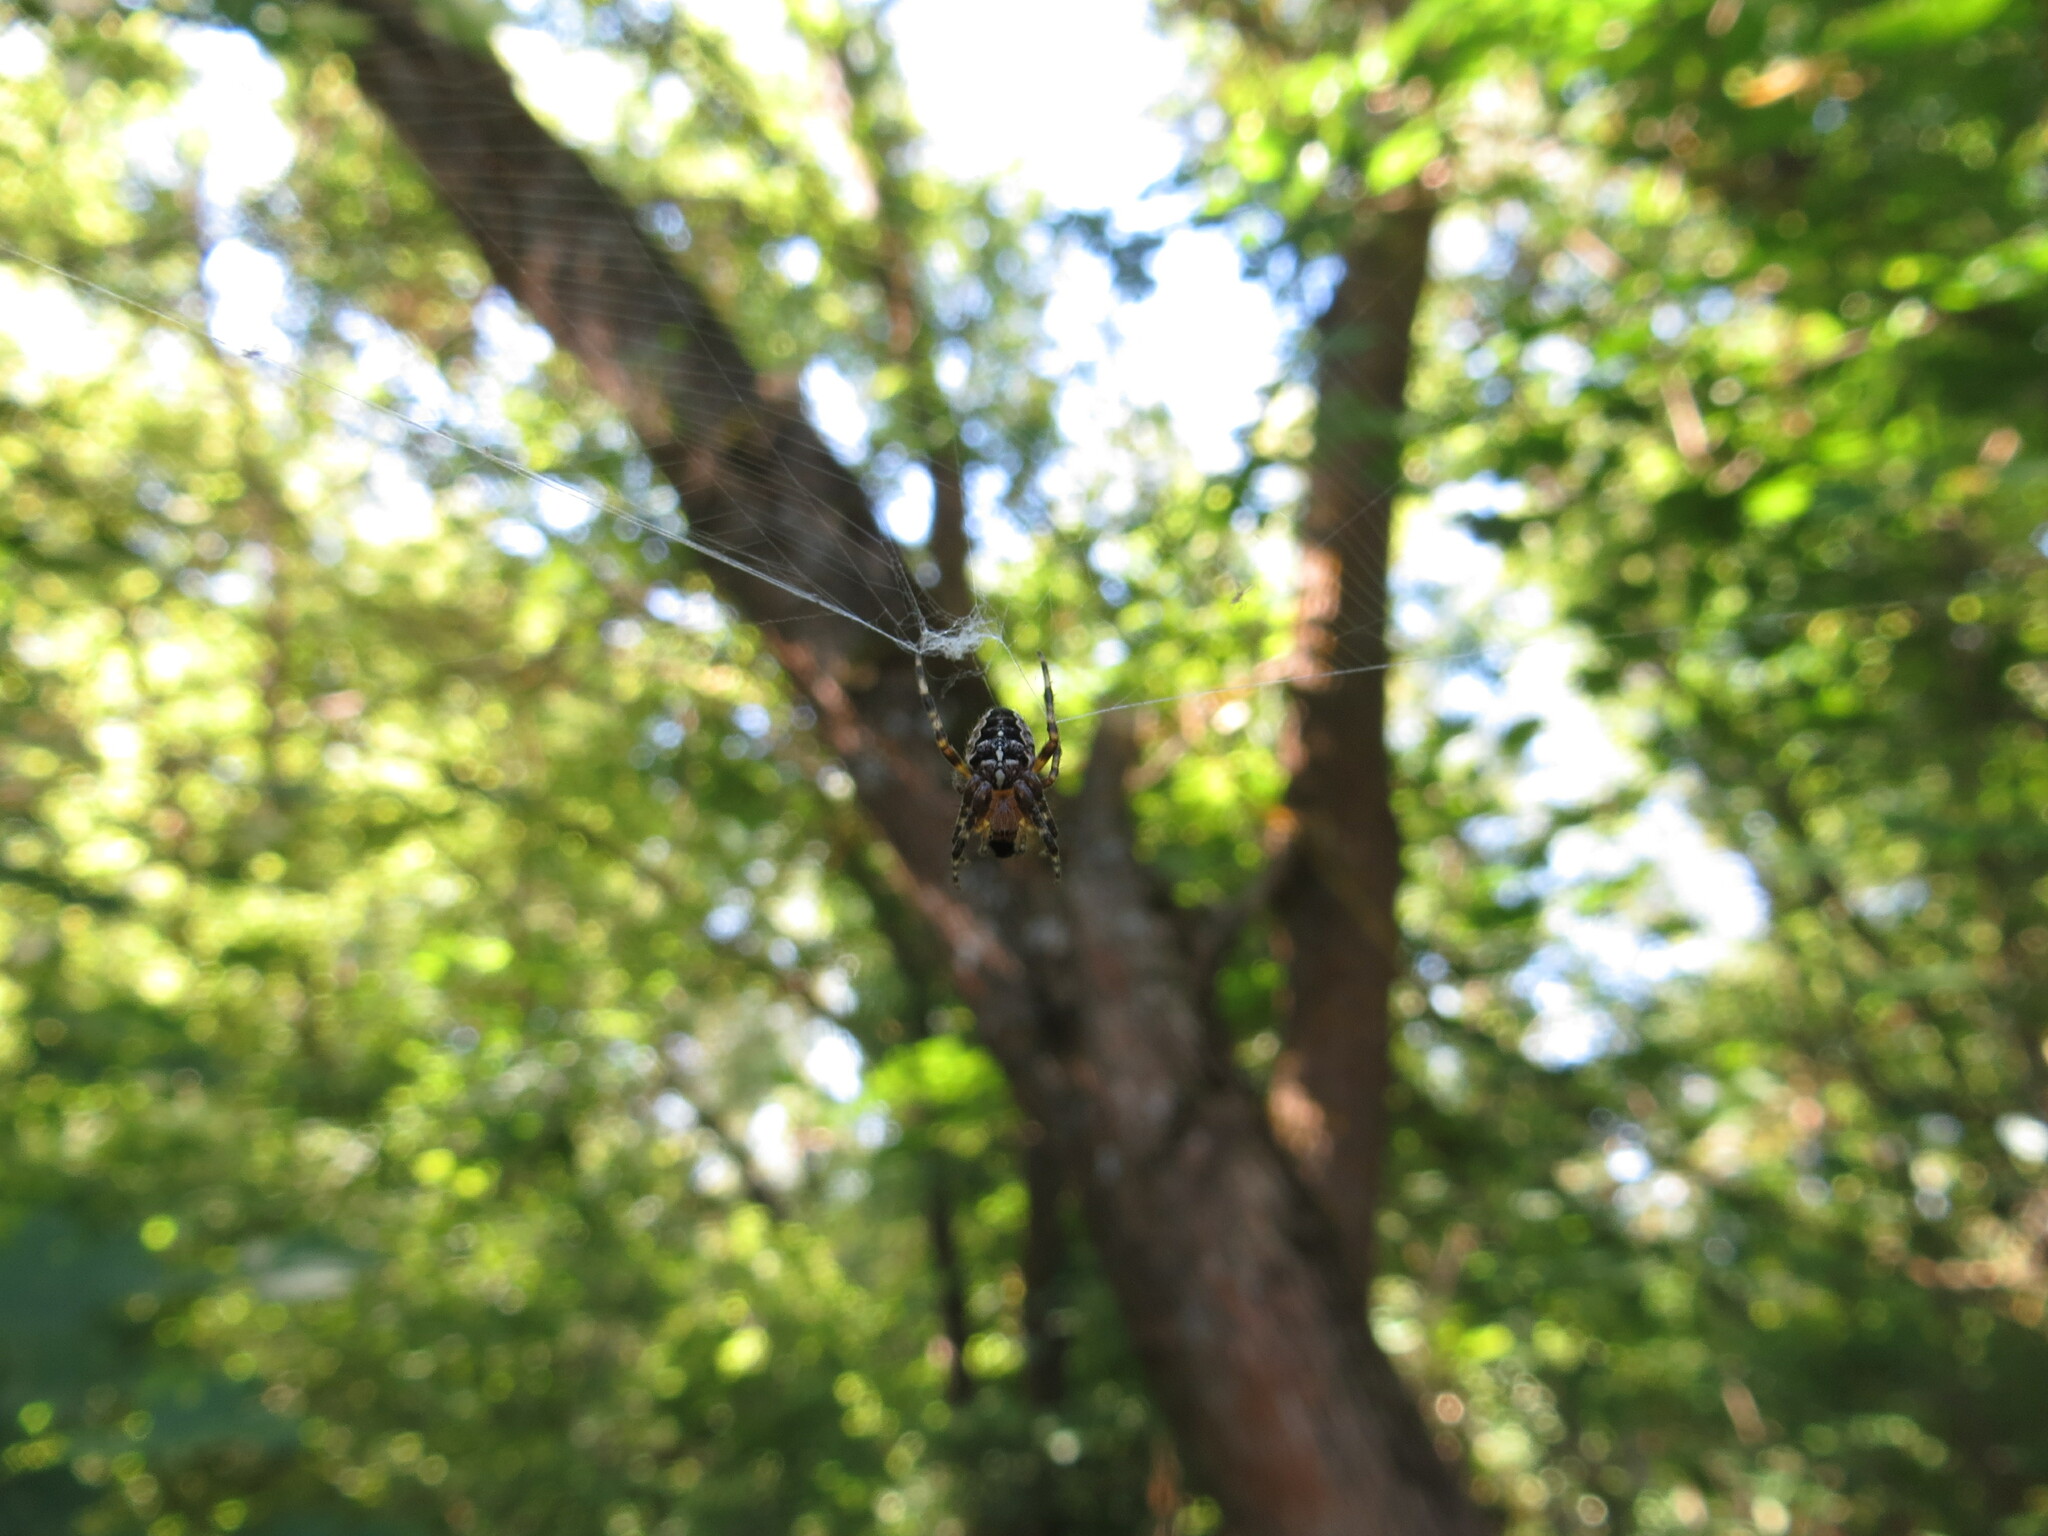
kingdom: Animalia
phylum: Arthropoda
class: Arachnida
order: Araneae
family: Araneidae
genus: Araneus
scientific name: Araneus diadematus
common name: Cross orbweaver
